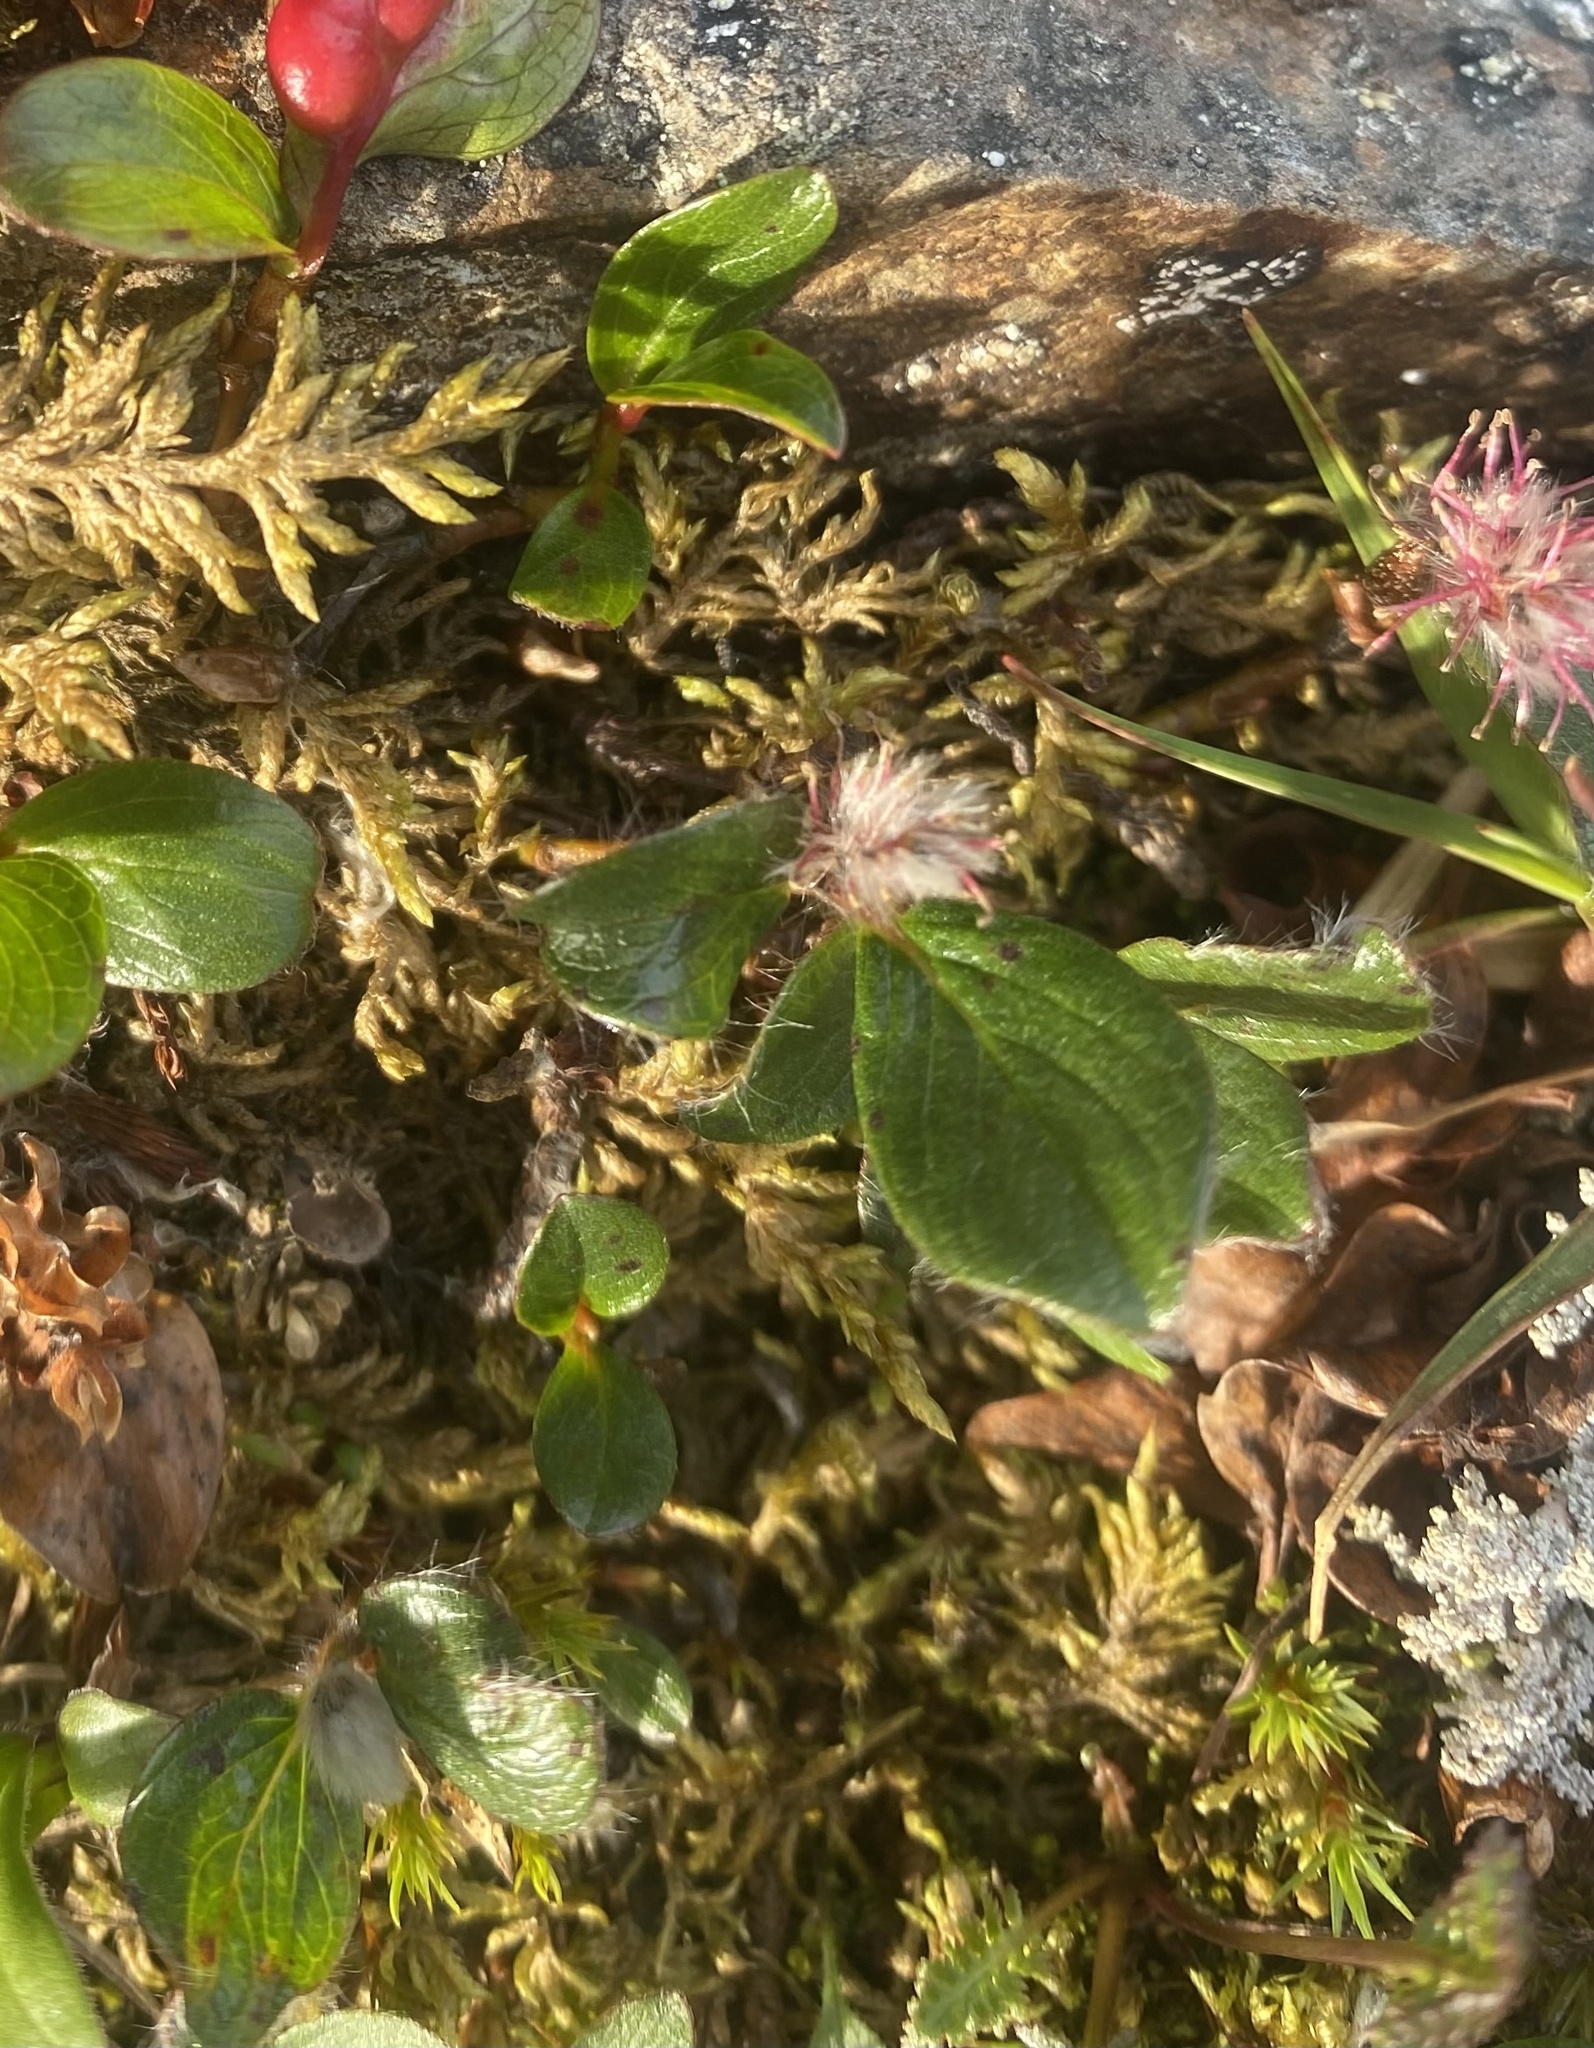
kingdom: Plantae
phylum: Tracheophyta
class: Magnoliopsida
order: Malpighiales
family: Salicaceae
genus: Salix
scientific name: Salix polaris
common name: Polar willow
